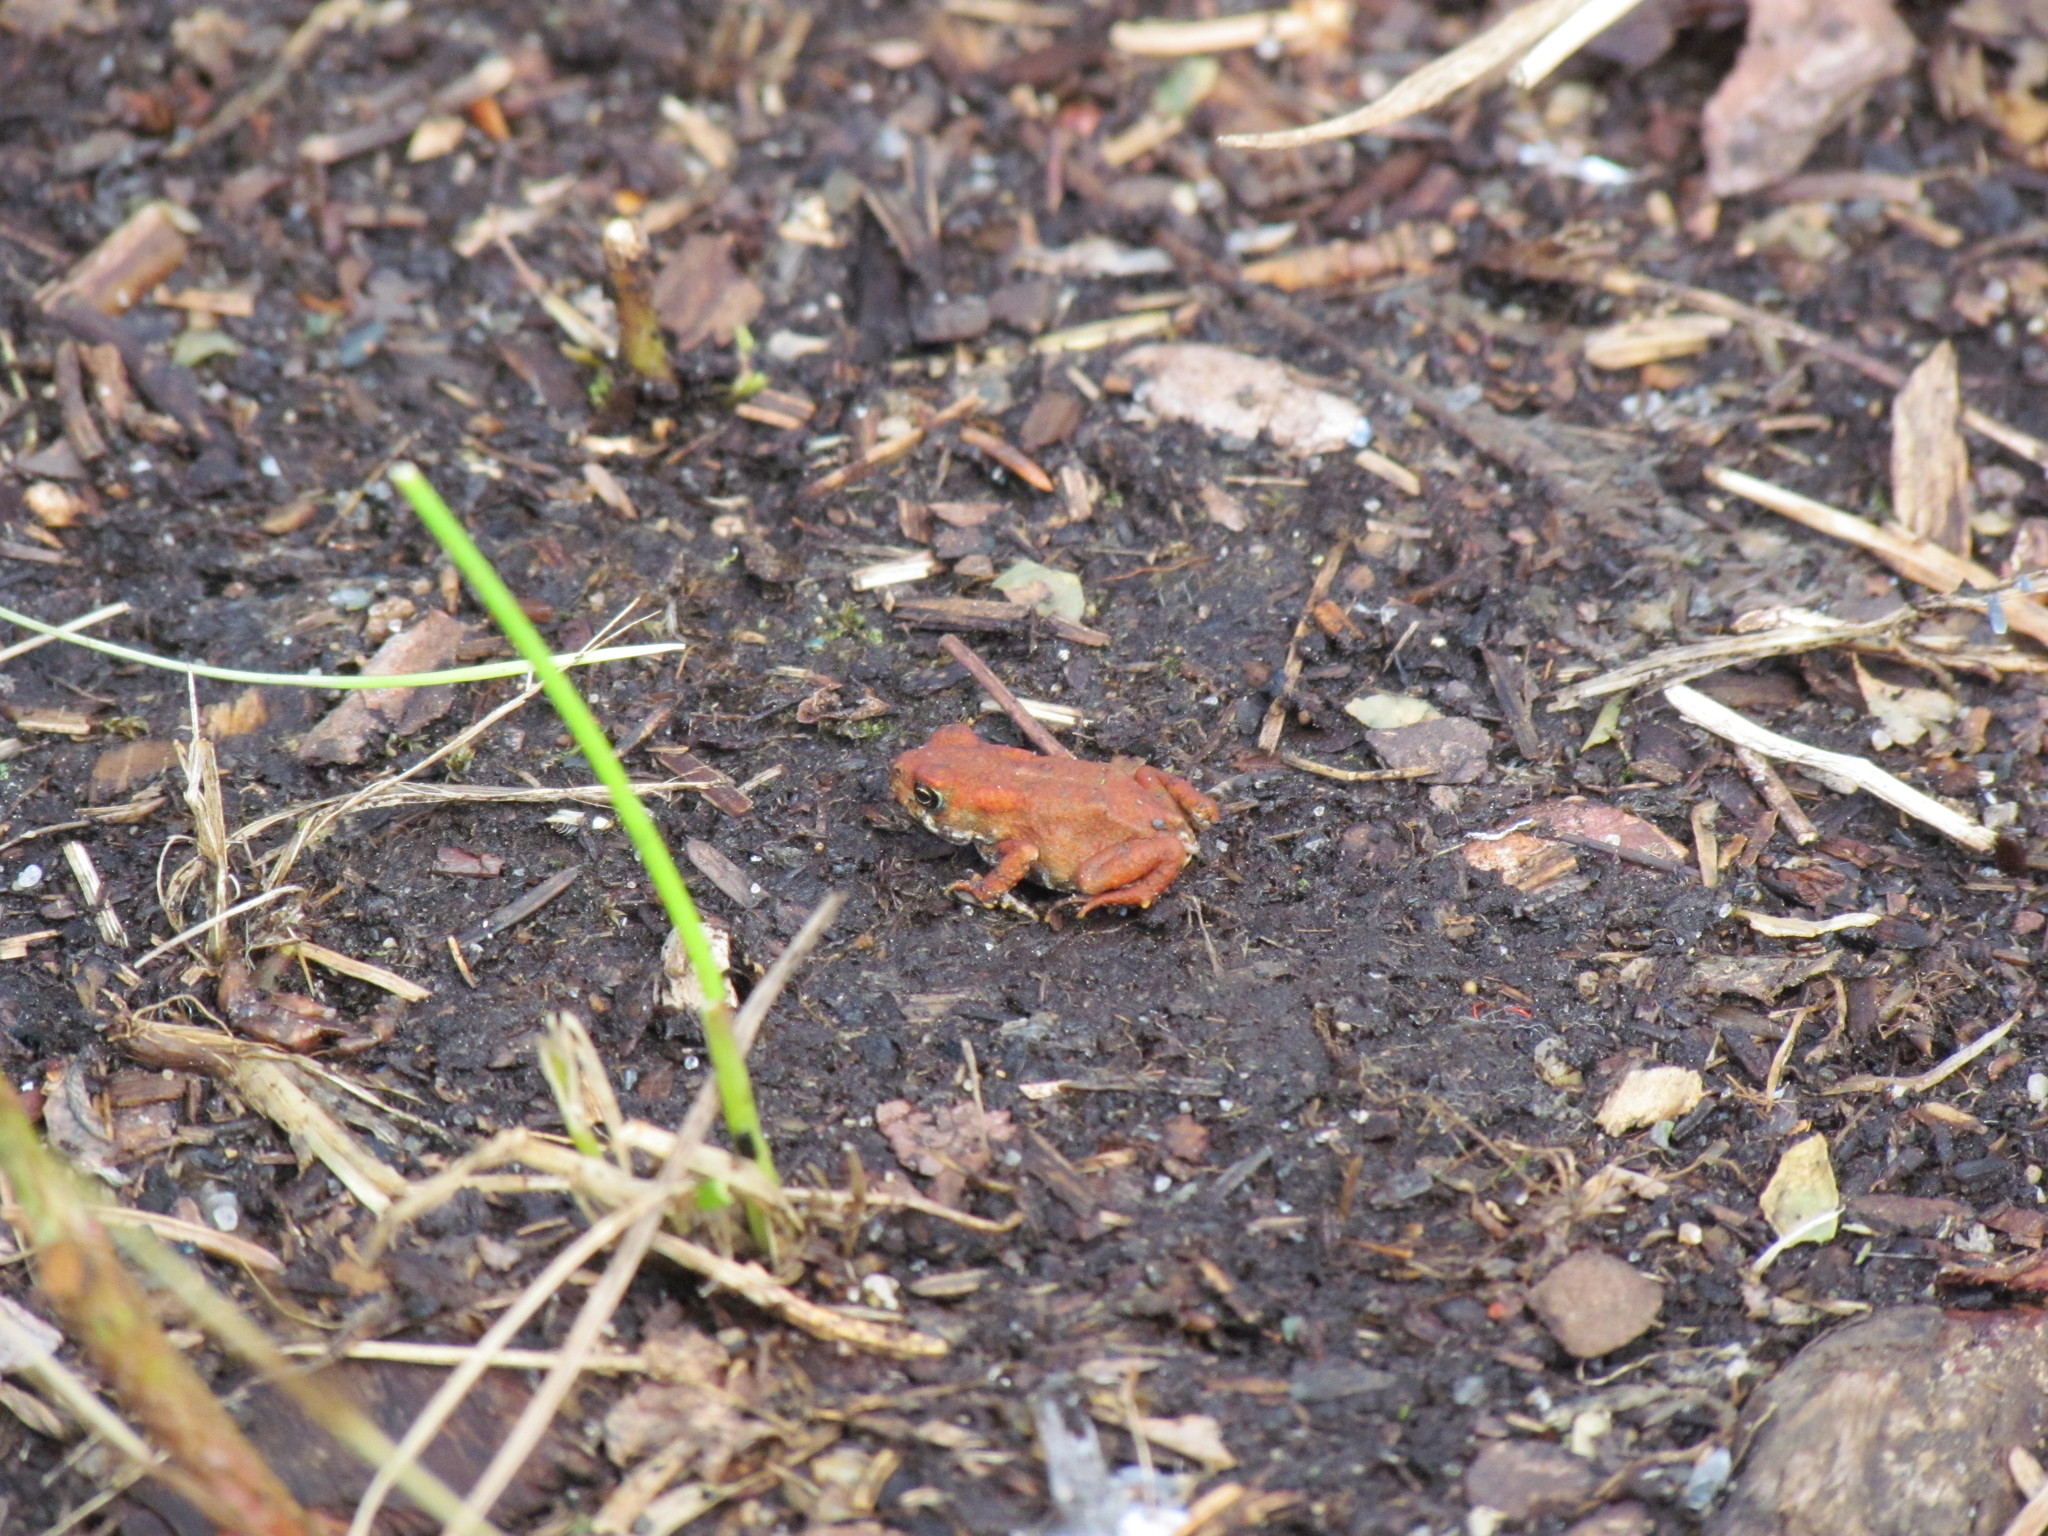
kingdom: Animalia
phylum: Chordata
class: Amphibia
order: Anura
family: Bufonidae
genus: Anaxyrus
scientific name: Anaxyrus americanus
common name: American toad
